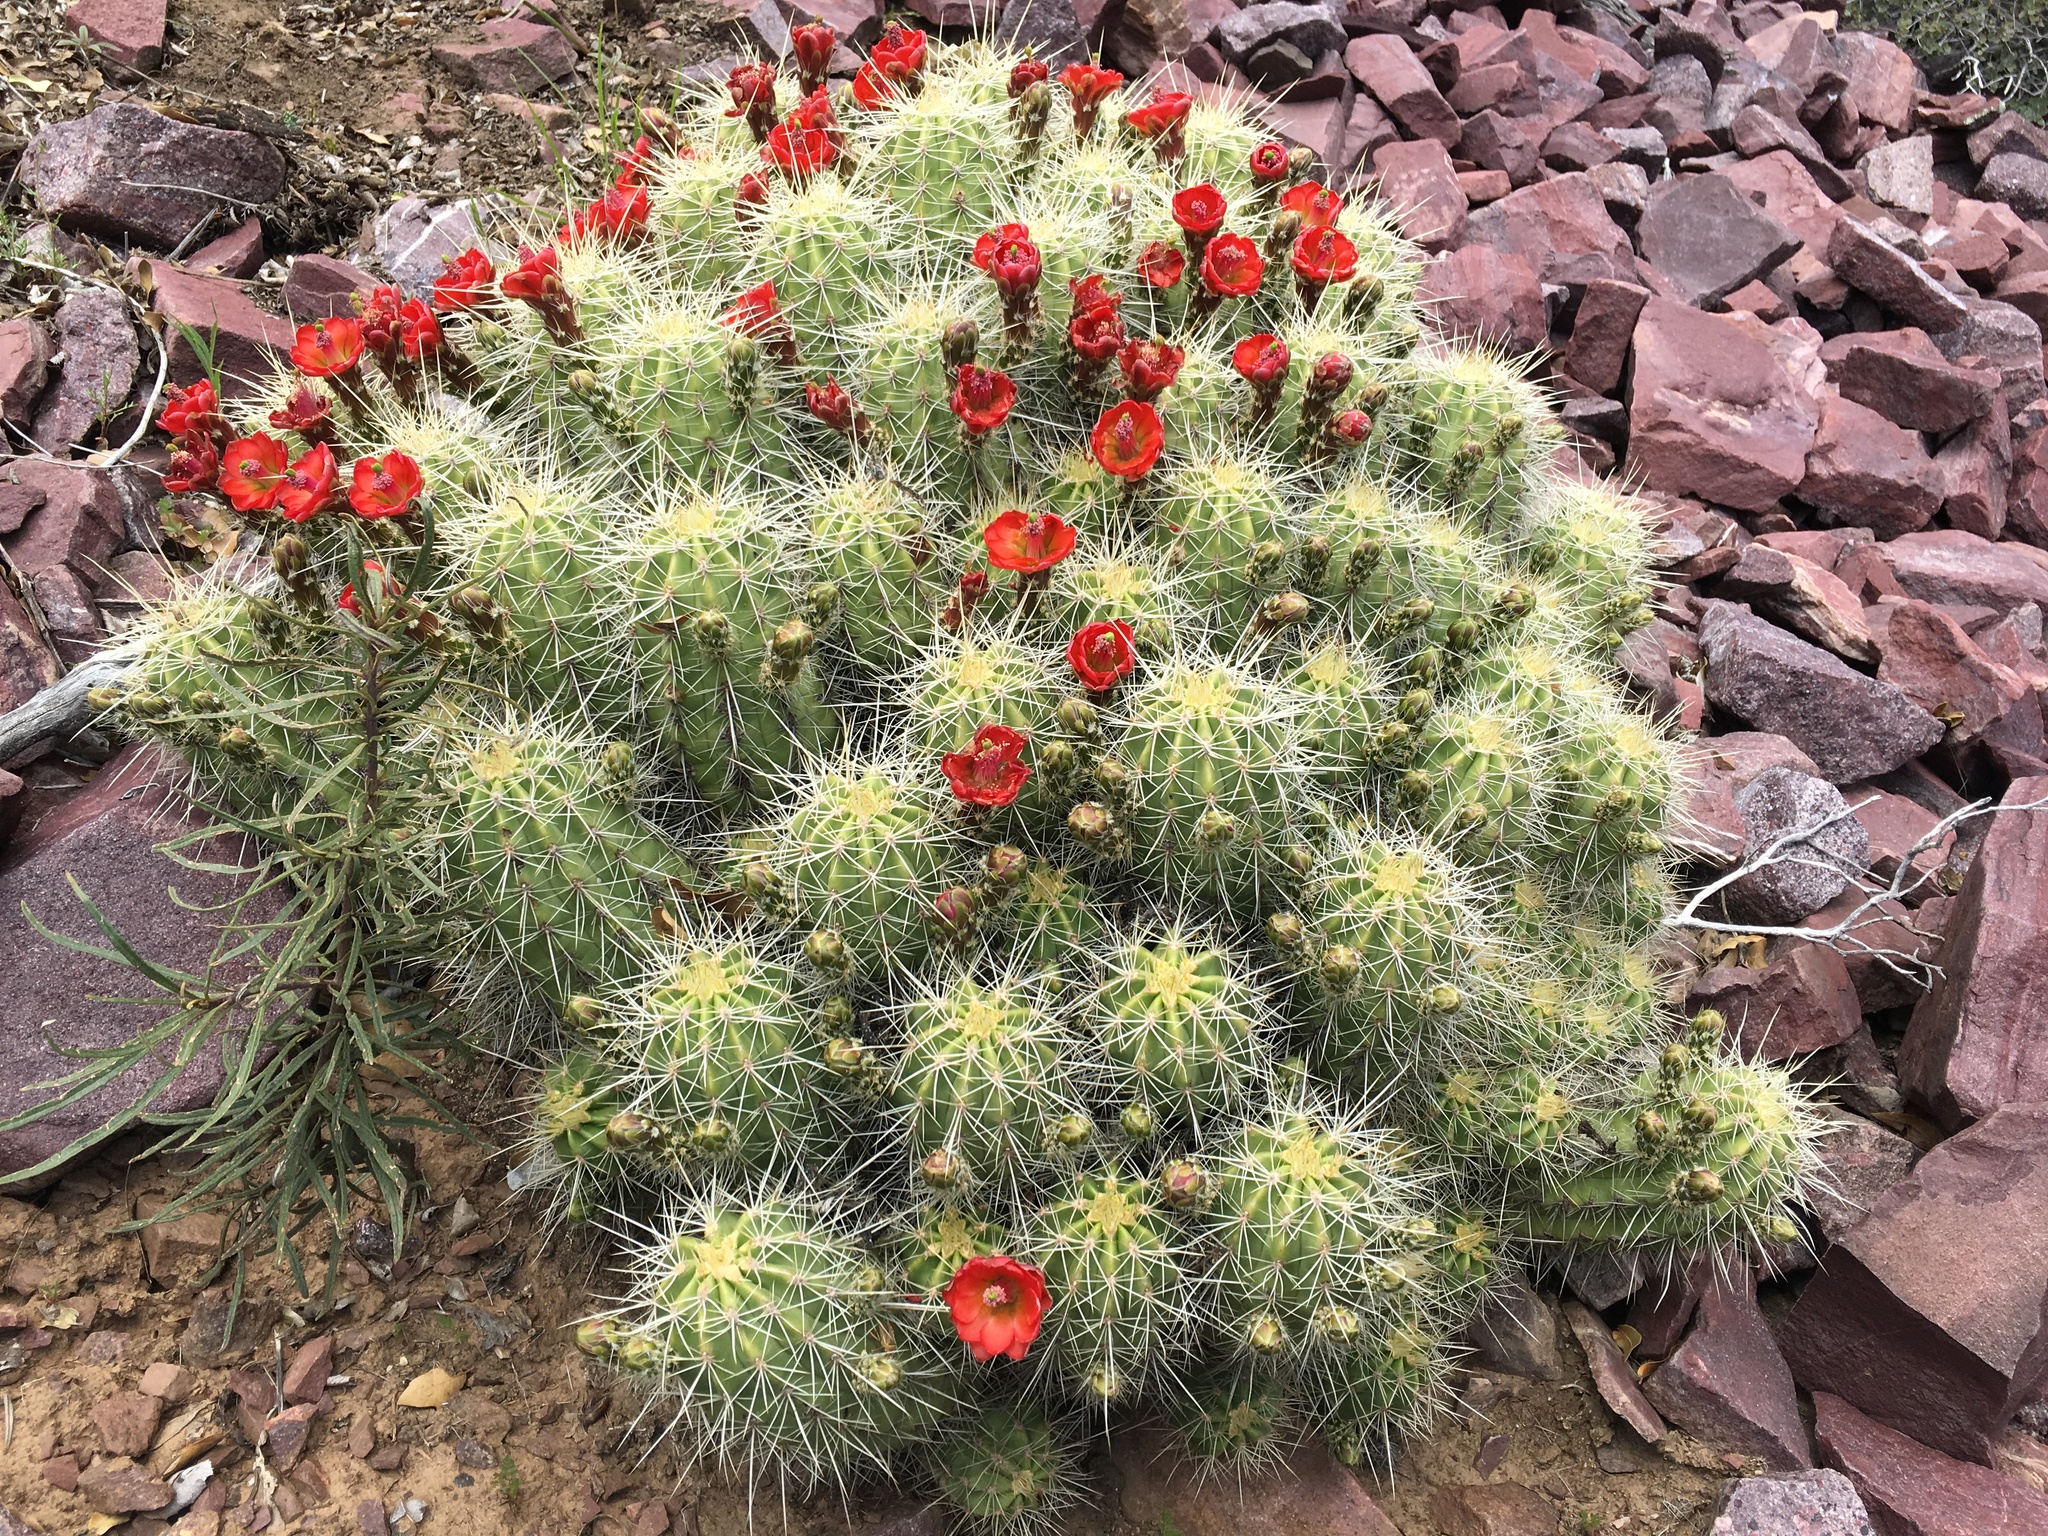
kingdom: Plantae
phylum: Tracheophyta
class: Magnoliopsida
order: Caryophyllales
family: Cactaceae
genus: Echinocereus
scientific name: Echinocereus yavapaiensis
